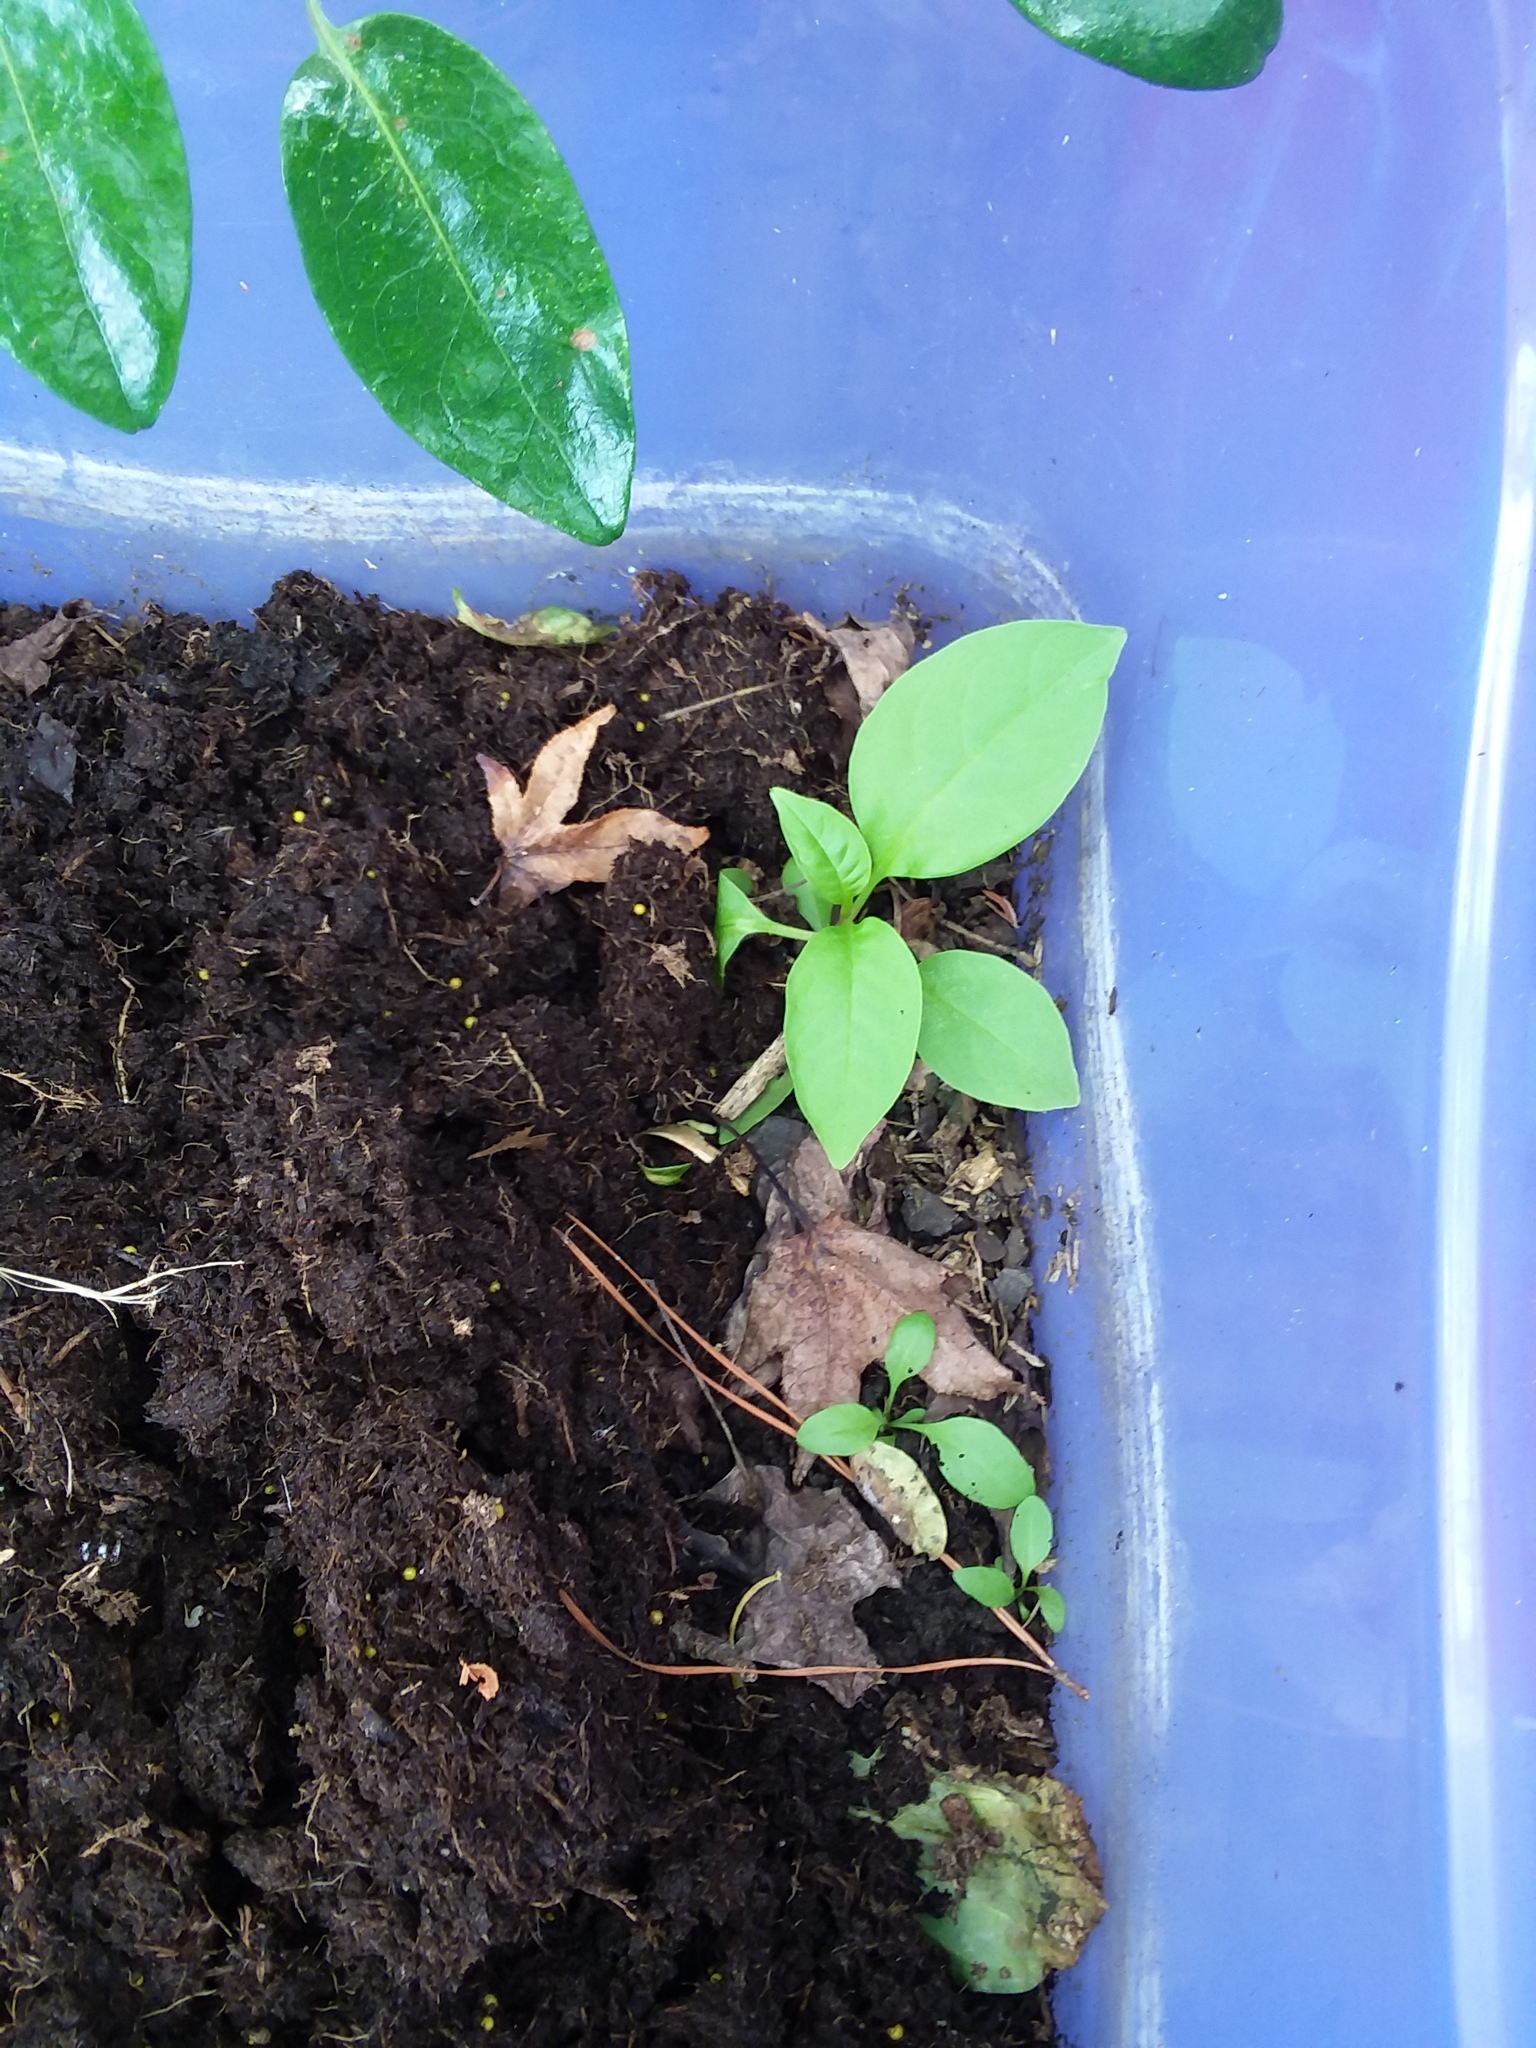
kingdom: Plantae
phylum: Tracheophyta
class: Magnoliopsida
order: Caryophyllales
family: Phytolaccaceae
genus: Phytolacca
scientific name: Phytolacca americana
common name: American pokeweed
